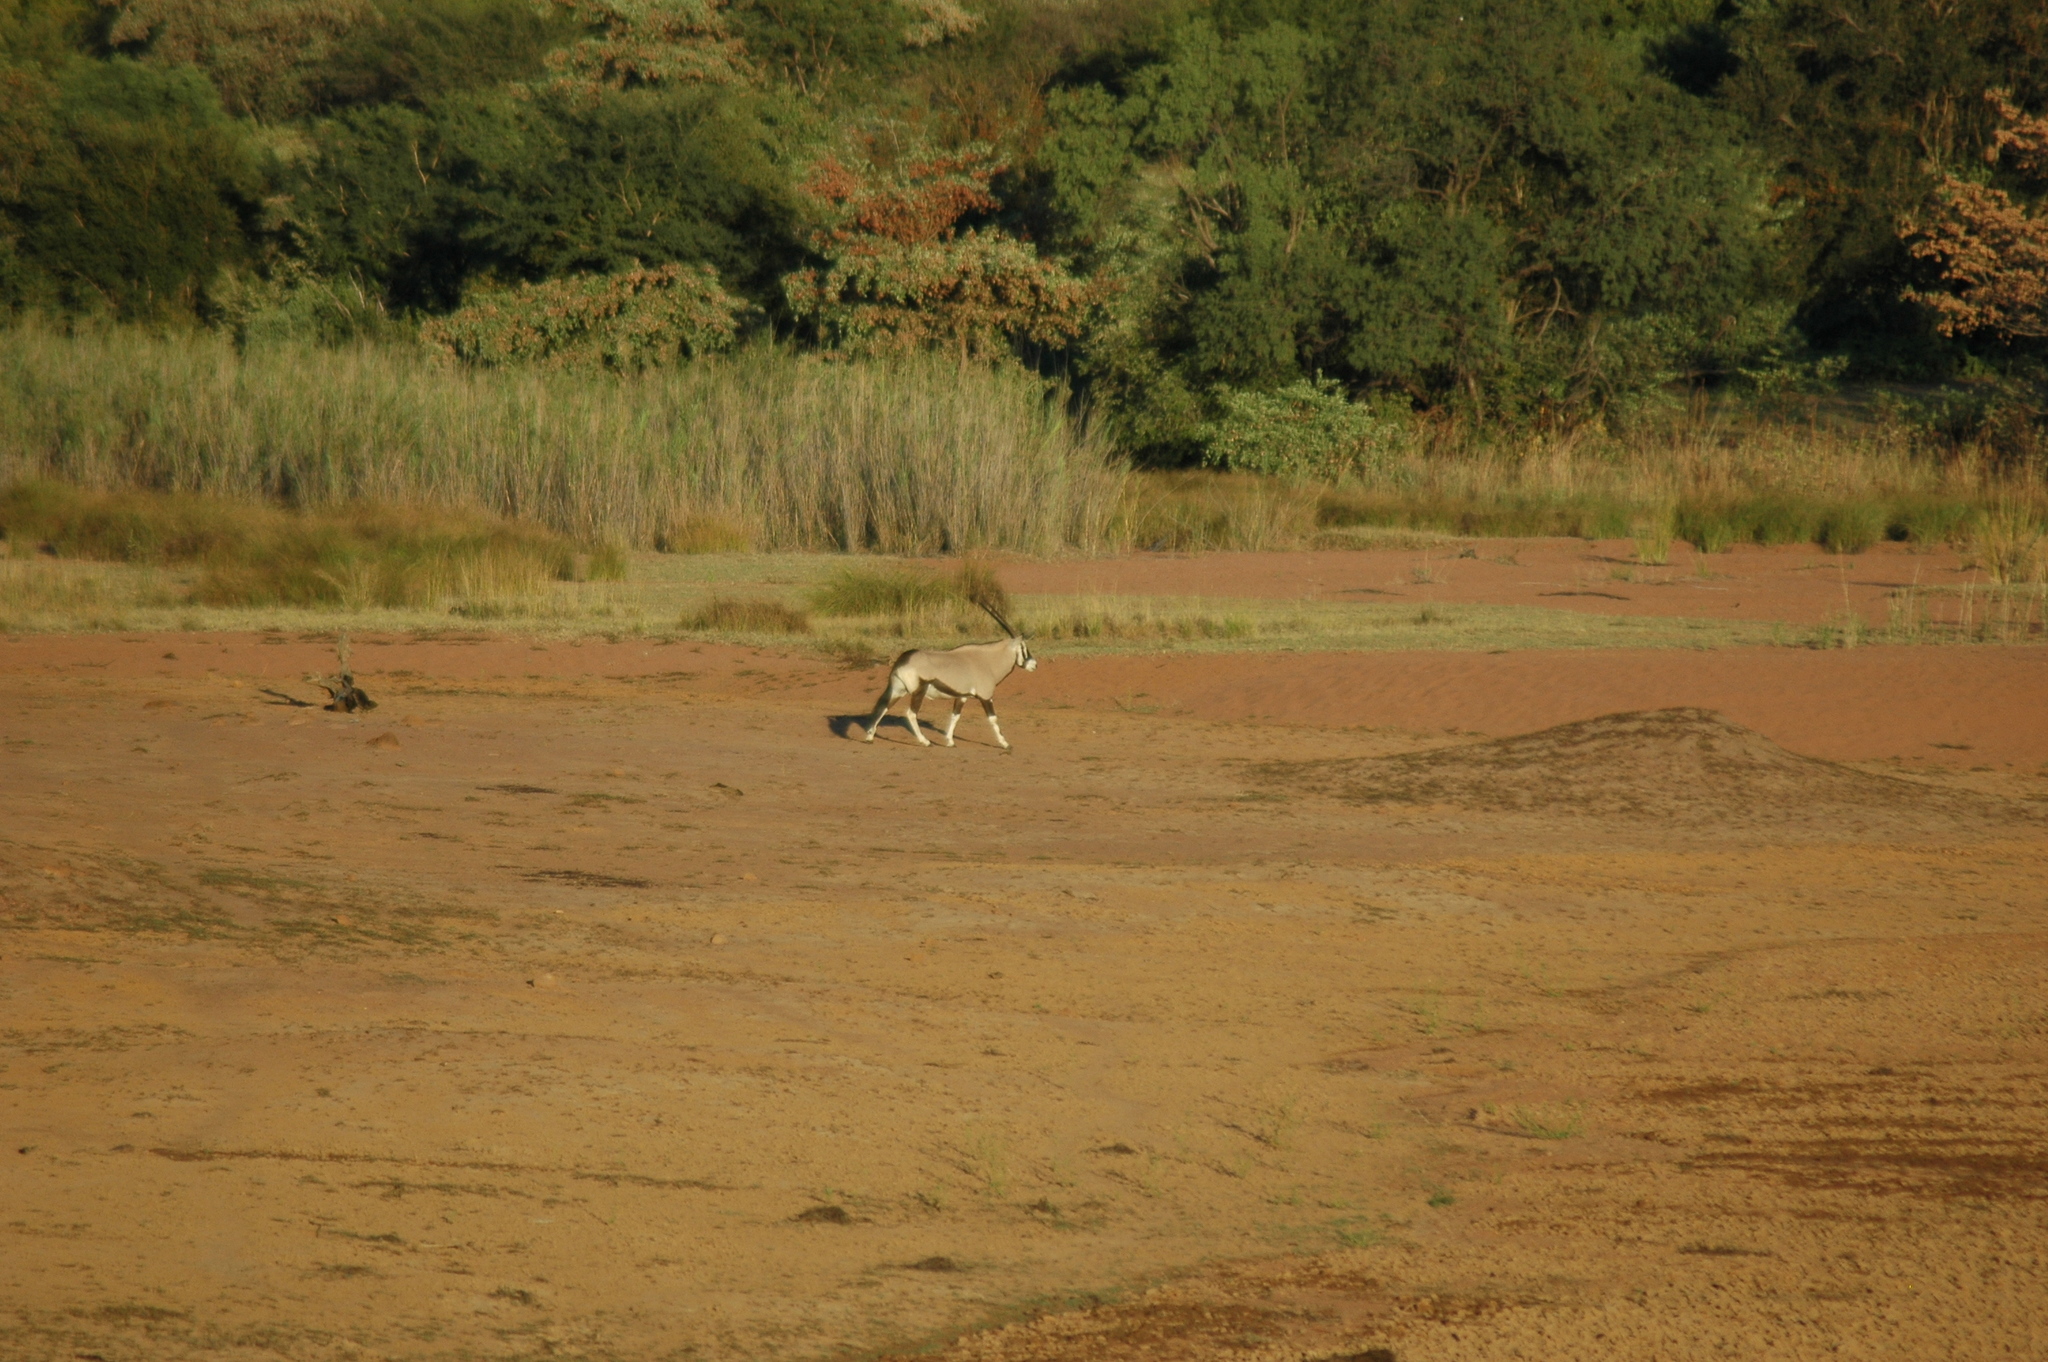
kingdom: Animalia
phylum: Chordata
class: Mammalia
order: Artiodactyla
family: Bovidae
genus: Oryx
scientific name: Oryx gazella
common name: Gemsbok
